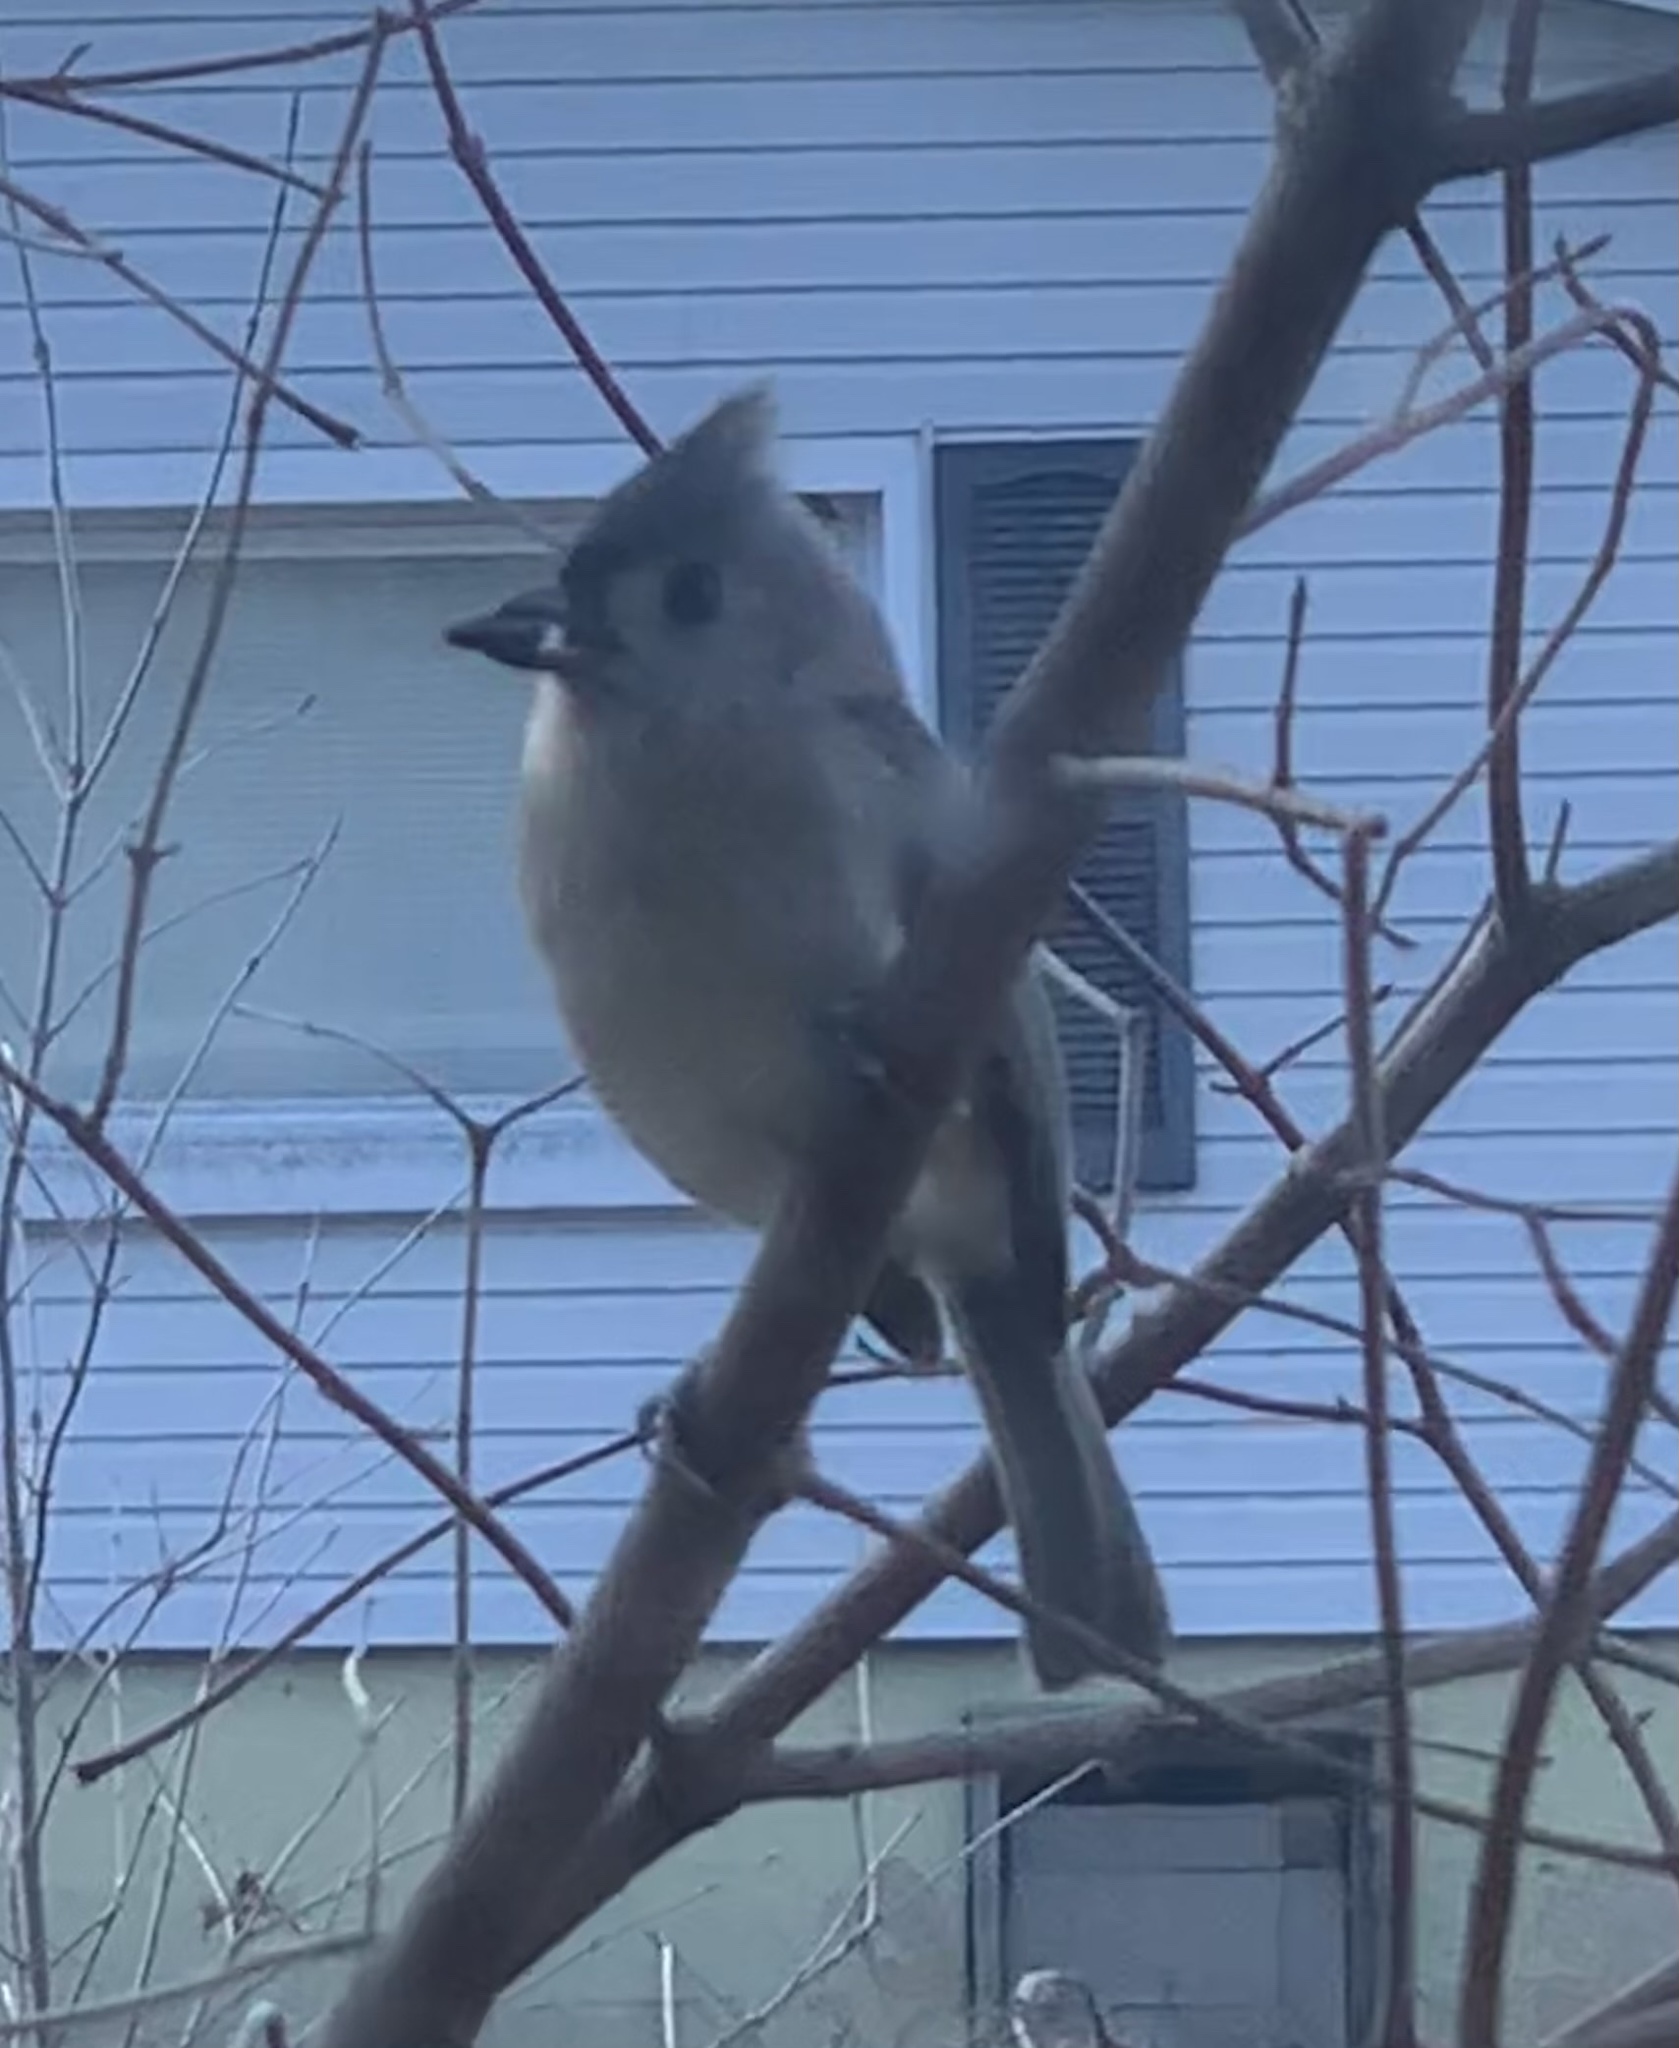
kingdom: Animalia
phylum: Chordata
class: Aves
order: Passeriformes
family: Paridae
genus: Baeolophus
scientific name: Baeolophus bicolor
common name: Tufted titmouse
